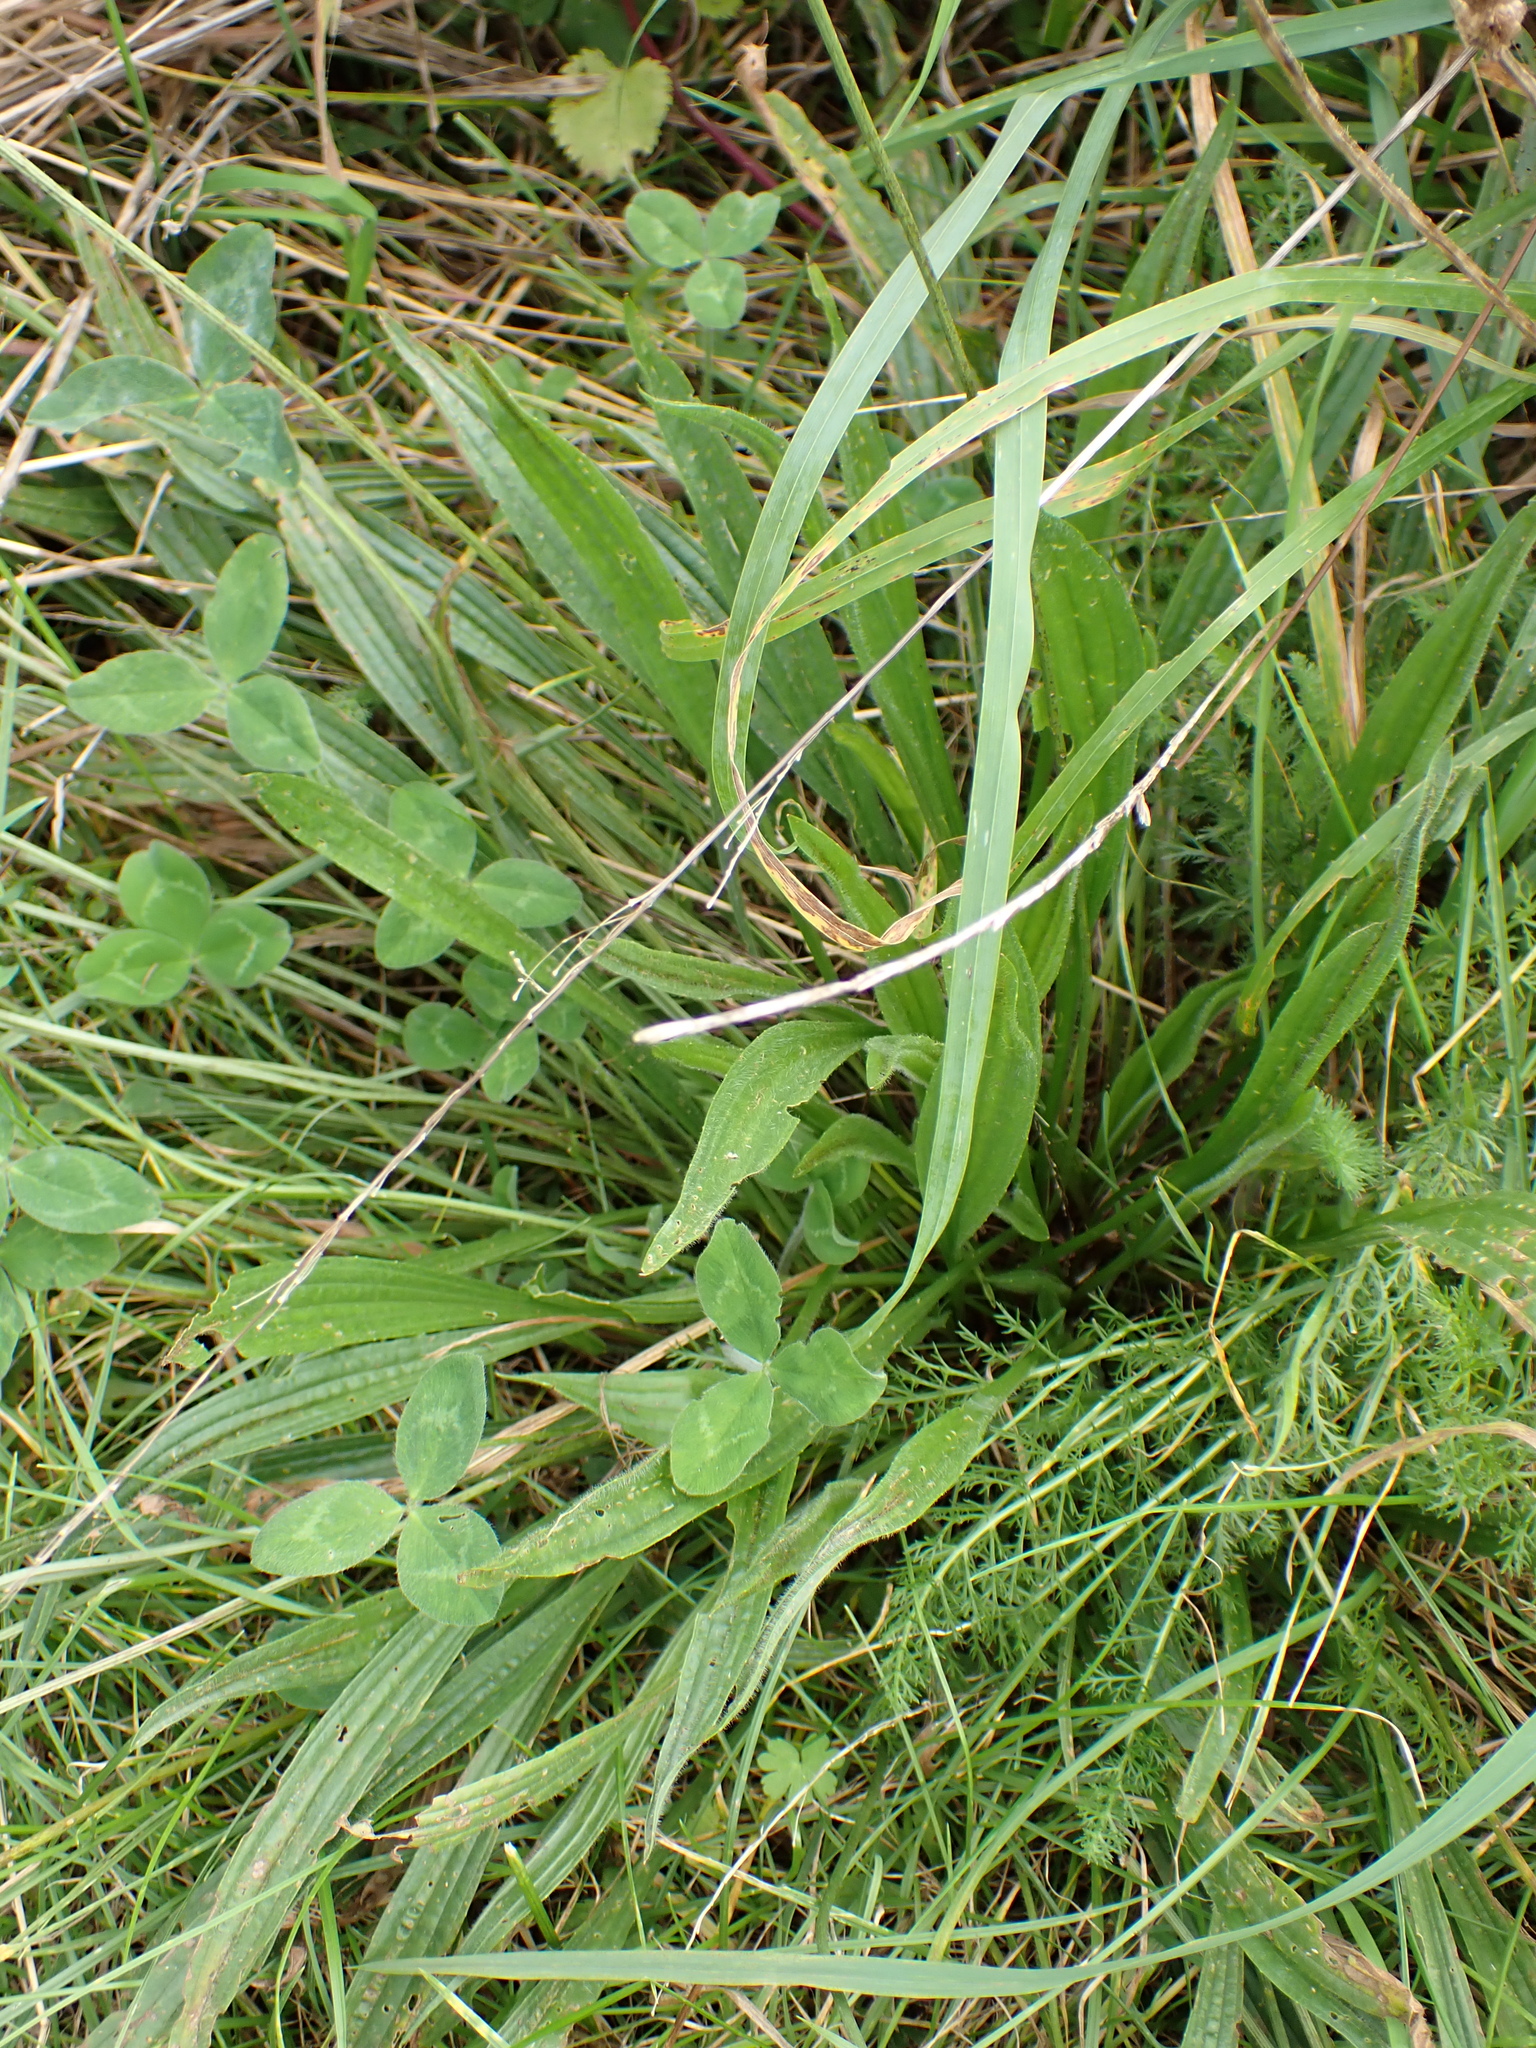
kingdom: Plantae
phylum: Tracheophyta
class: Magnoliopsida
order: Lamiales
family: Plantaginaceae
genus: Plantago
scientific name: Plantago lanceolata
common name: Ribwort plantain
